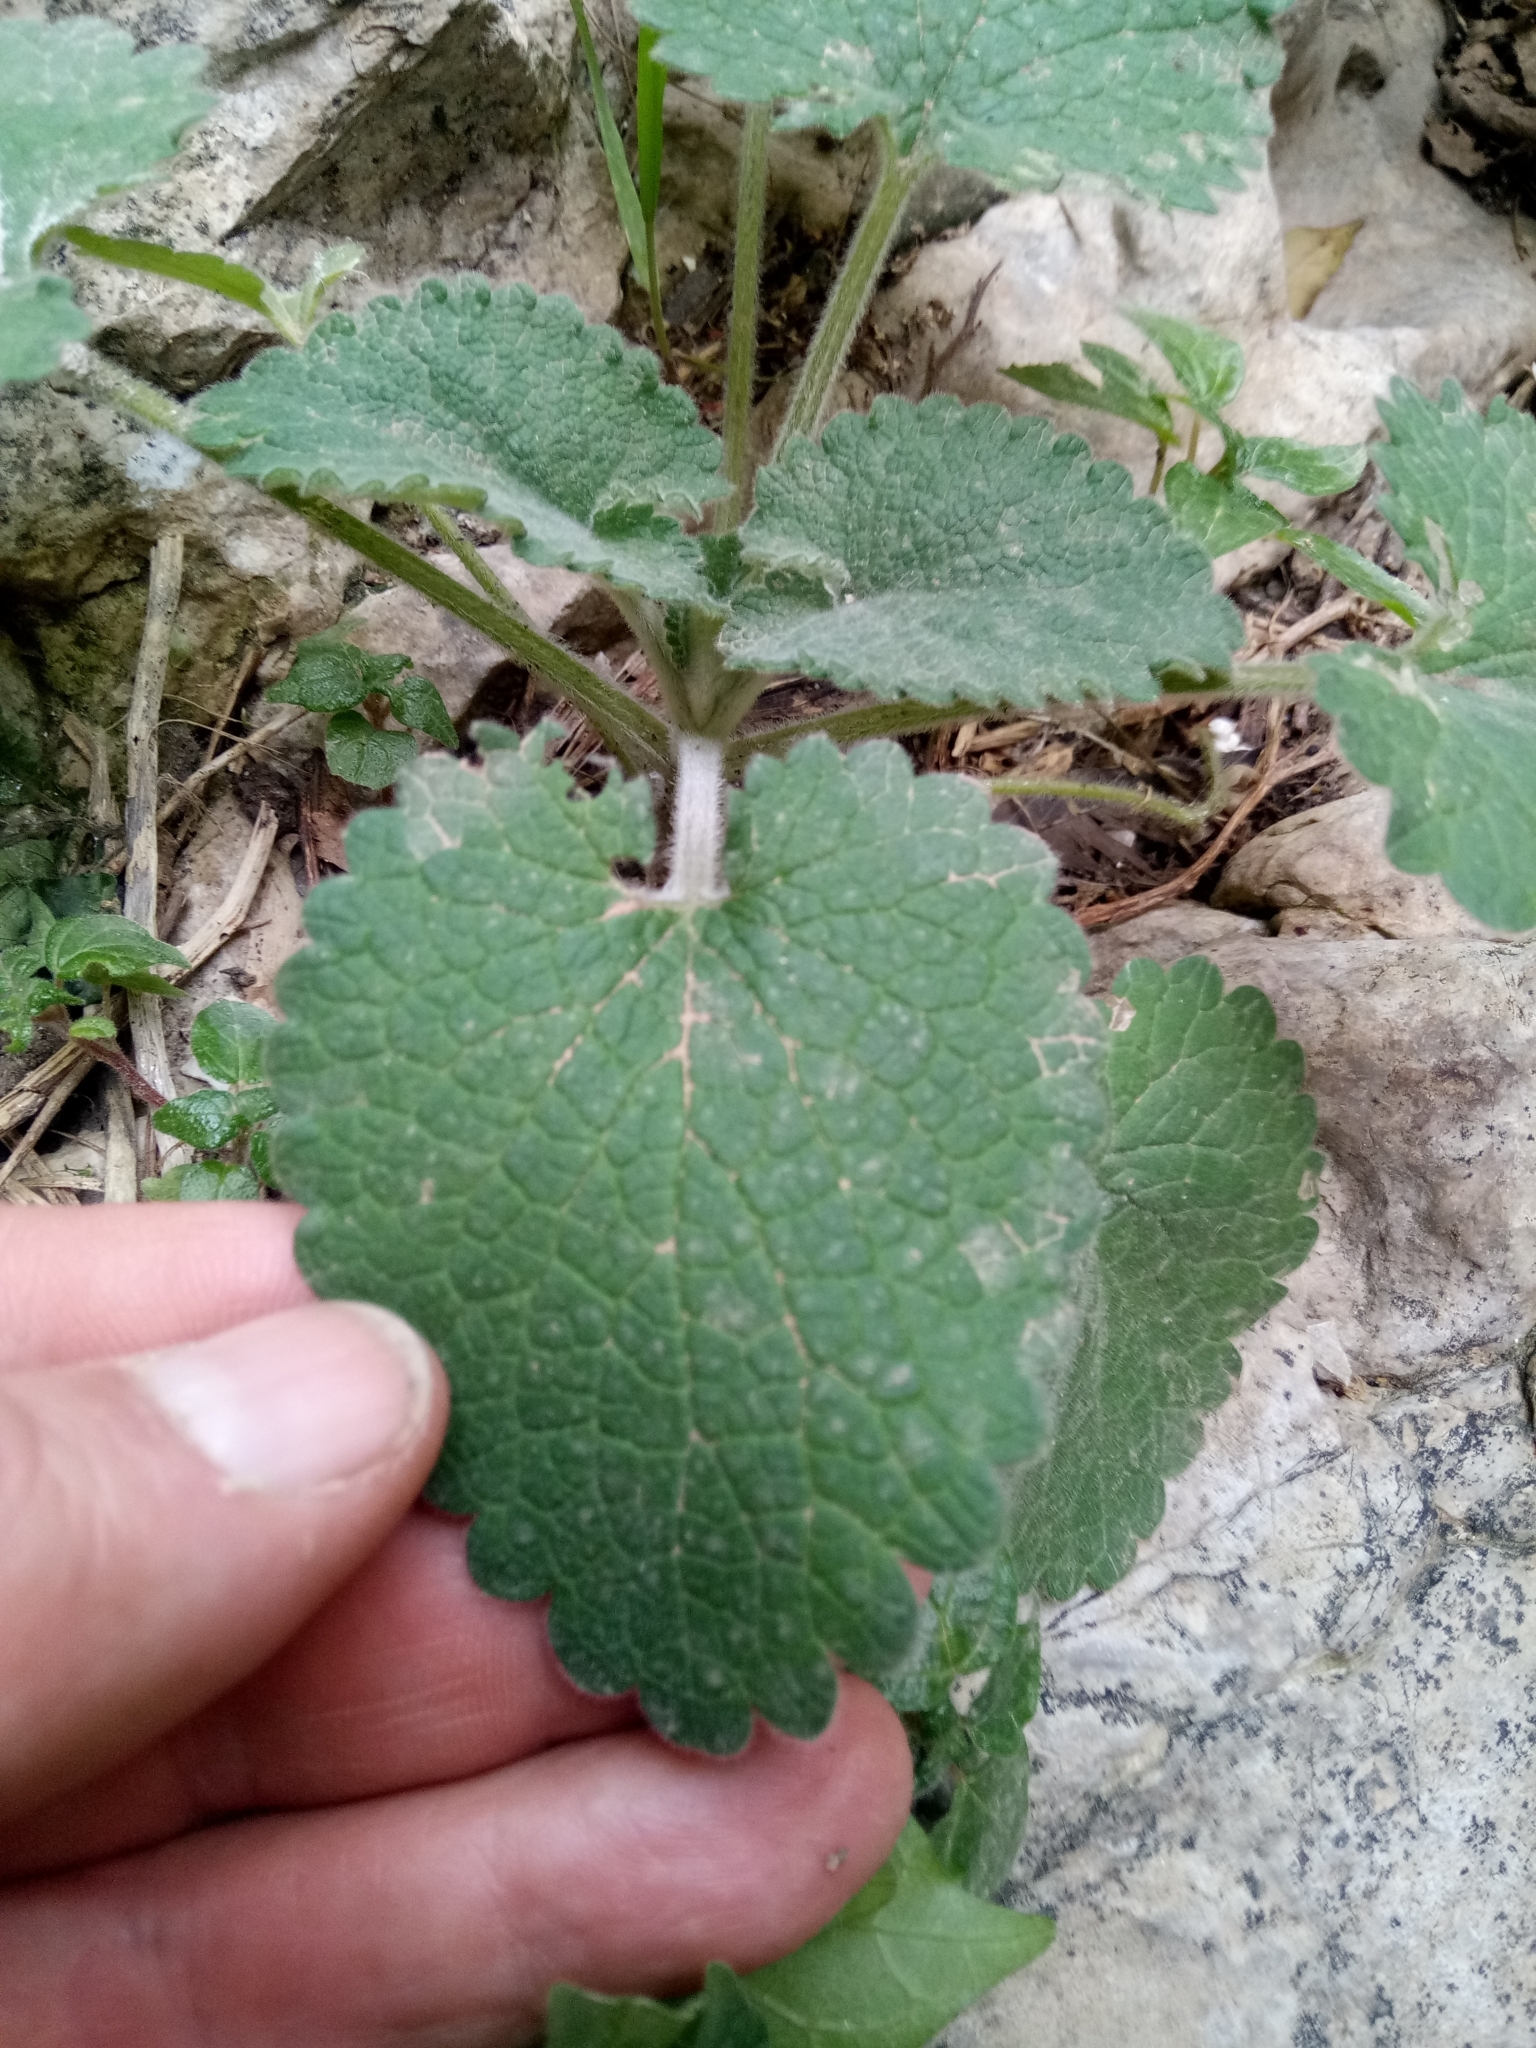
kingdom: Plantae
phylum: Tracheophyta
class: Magnoliopsida
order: Lamiales
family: Lamiaceae
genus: Stachys
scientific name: Stachys circinata
